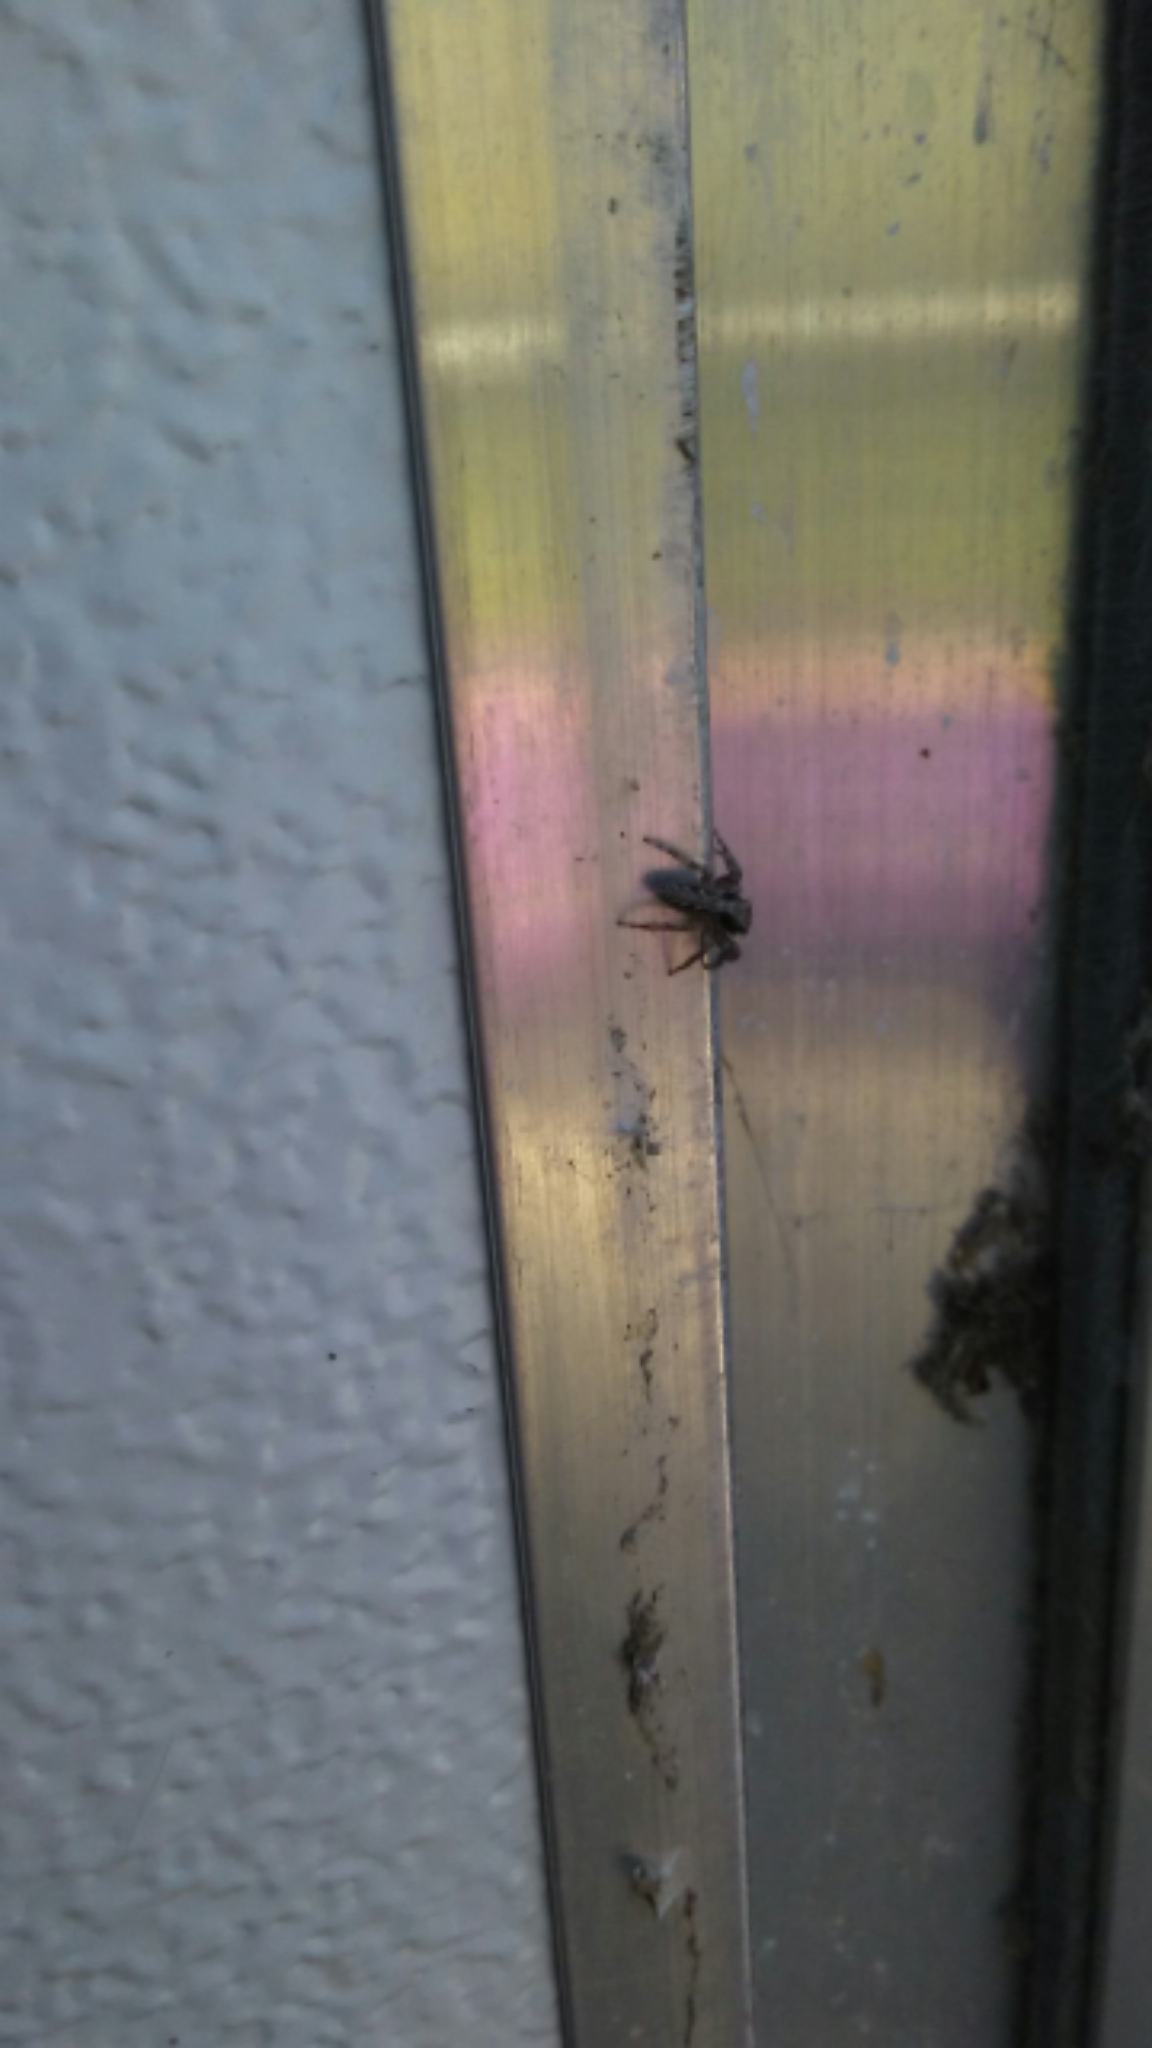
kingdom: Animalia
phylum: Arthropoda
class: Arachnida
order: Araneae
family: Salticidae
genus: Platycryptus
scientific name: Platycryptus californicus
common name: Jumping spiders
